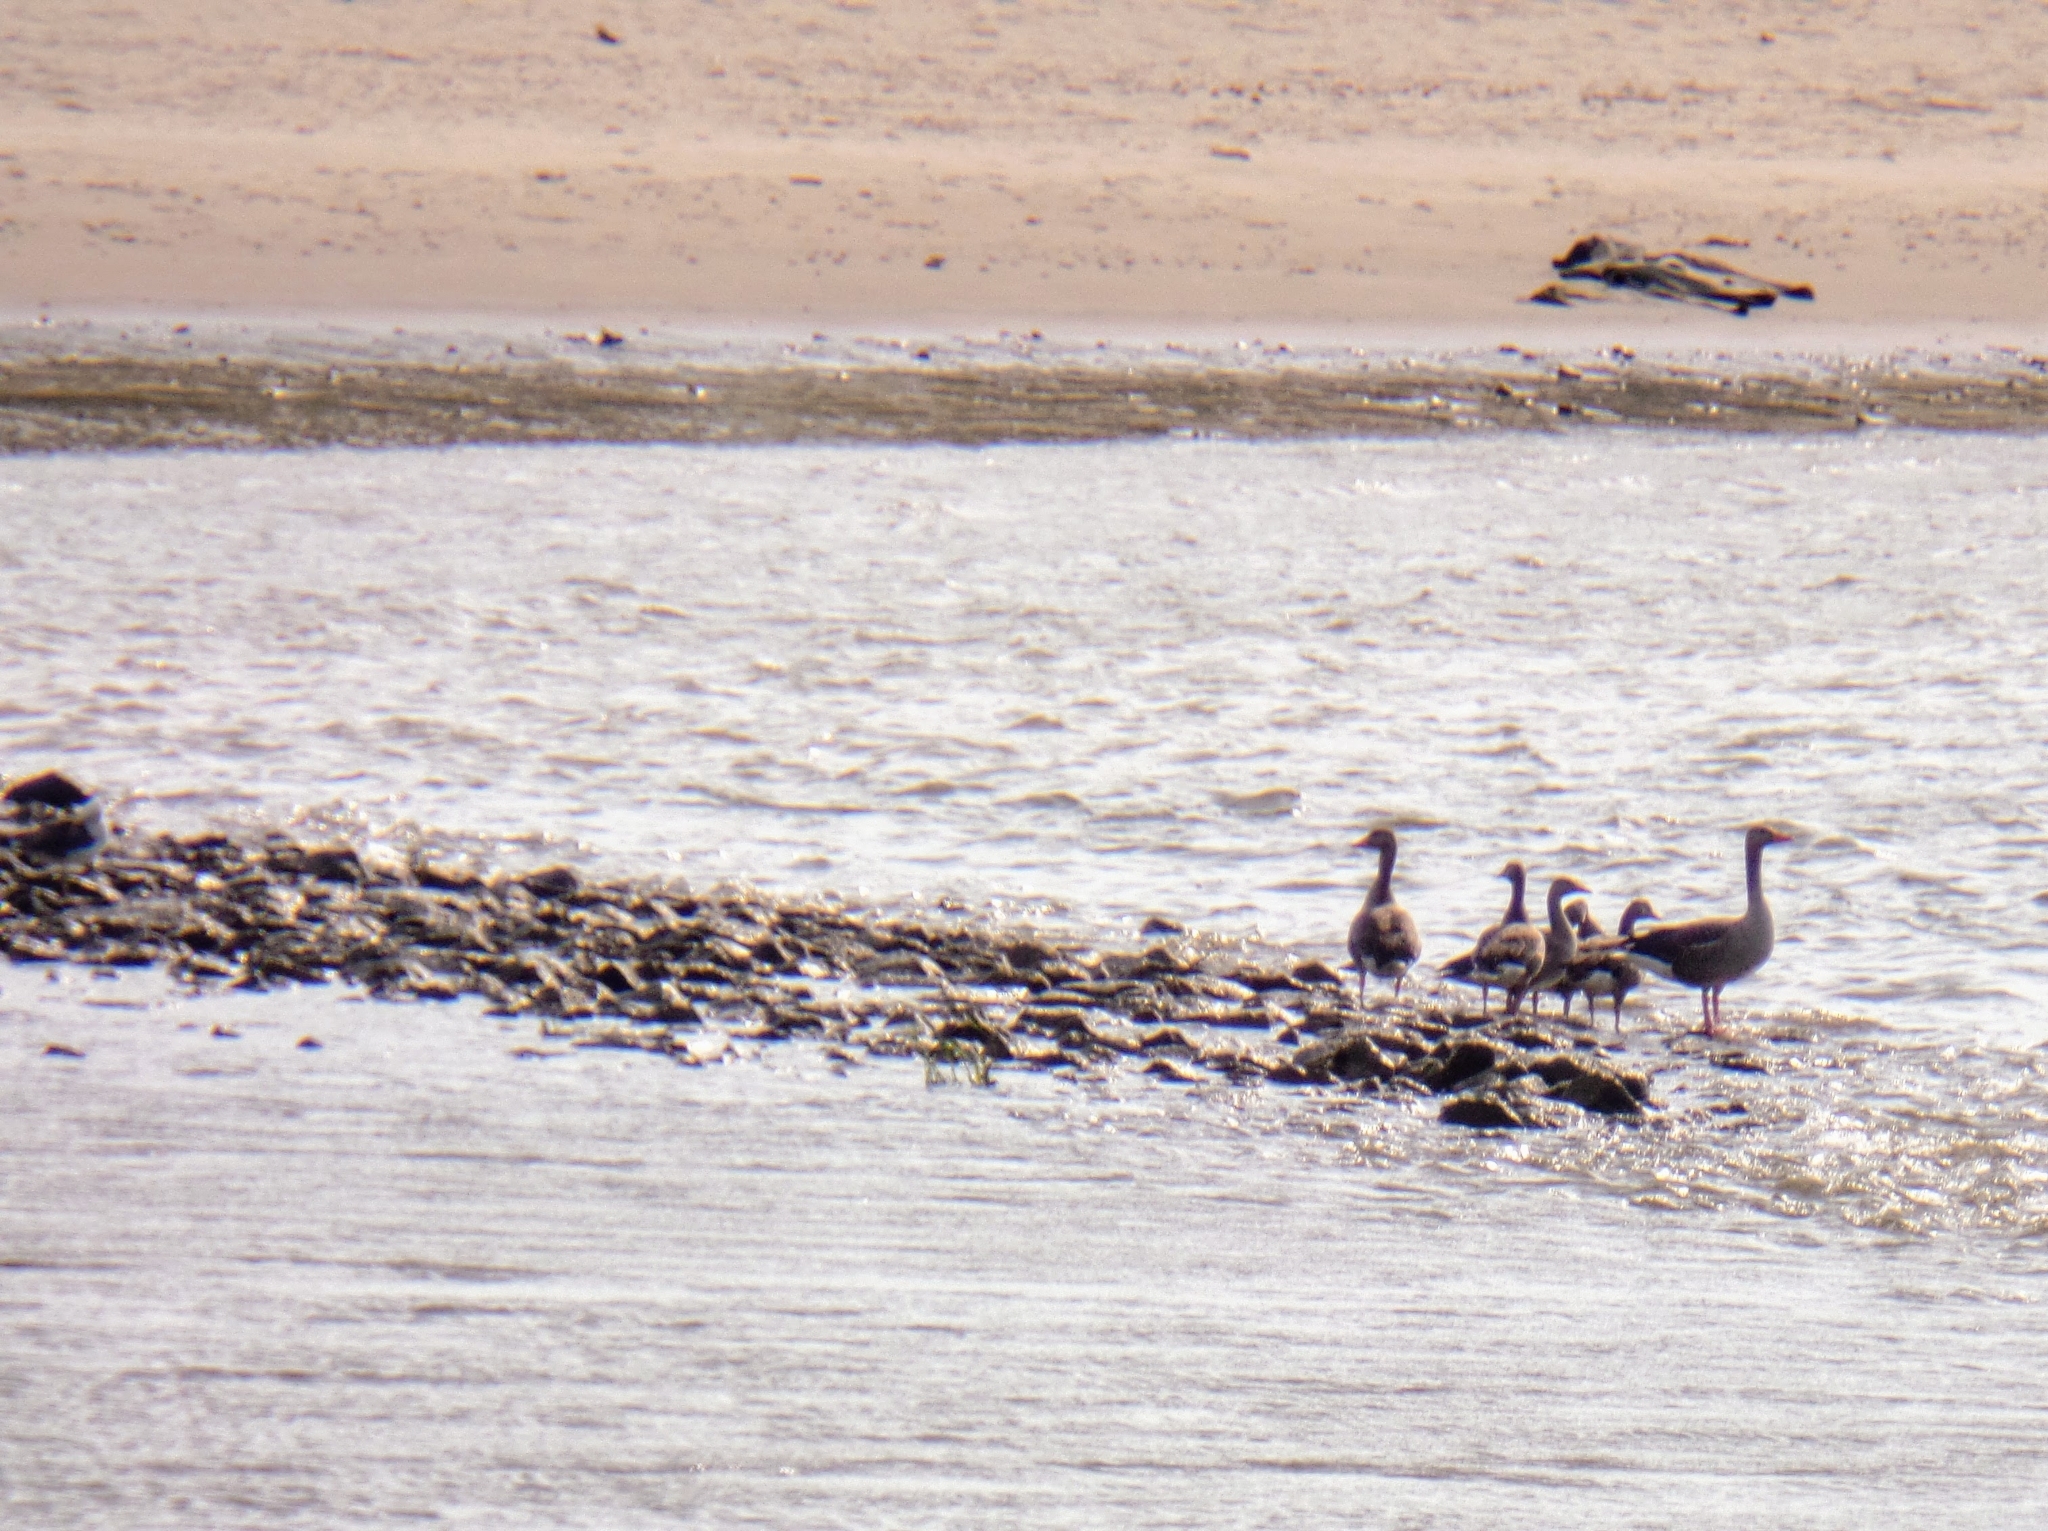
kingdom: Animalia
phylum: Chordata
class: Aves
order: Anseriformes
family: Anatidae
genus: Anser
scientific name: Anser anser
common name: Greylag goose
